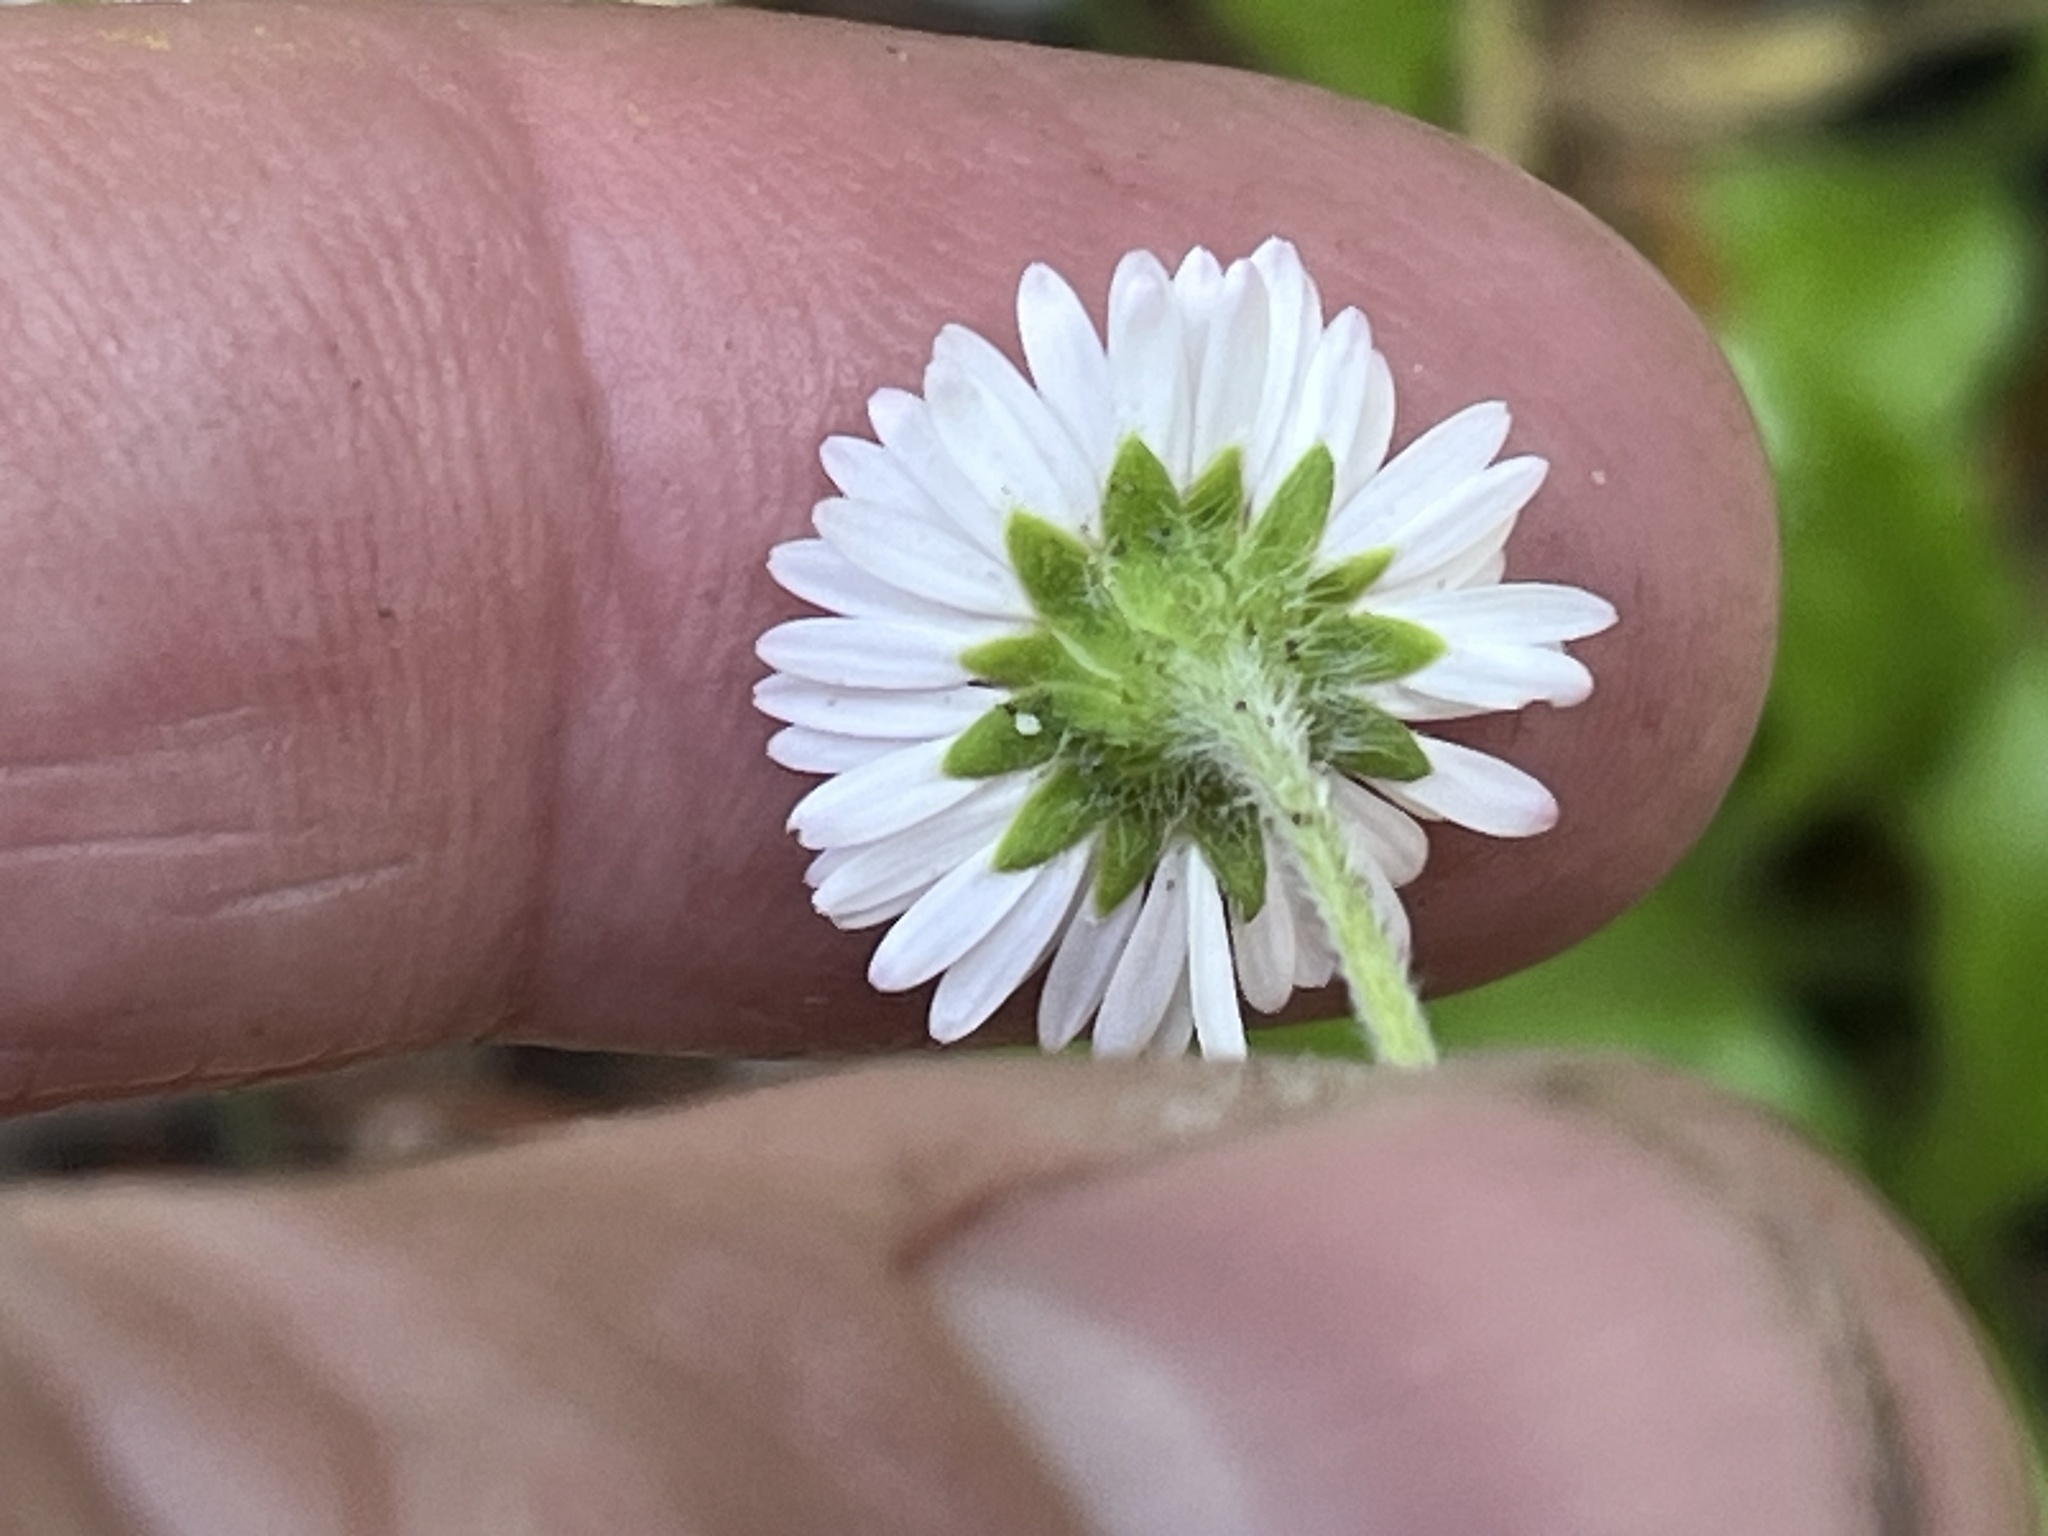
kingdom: Plantae
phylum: Tracheophyta
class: Magnoliopsida
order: Asterales
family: Asteraceae
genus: Bellis
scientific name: Bellis perennis
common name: Lawndaisy
